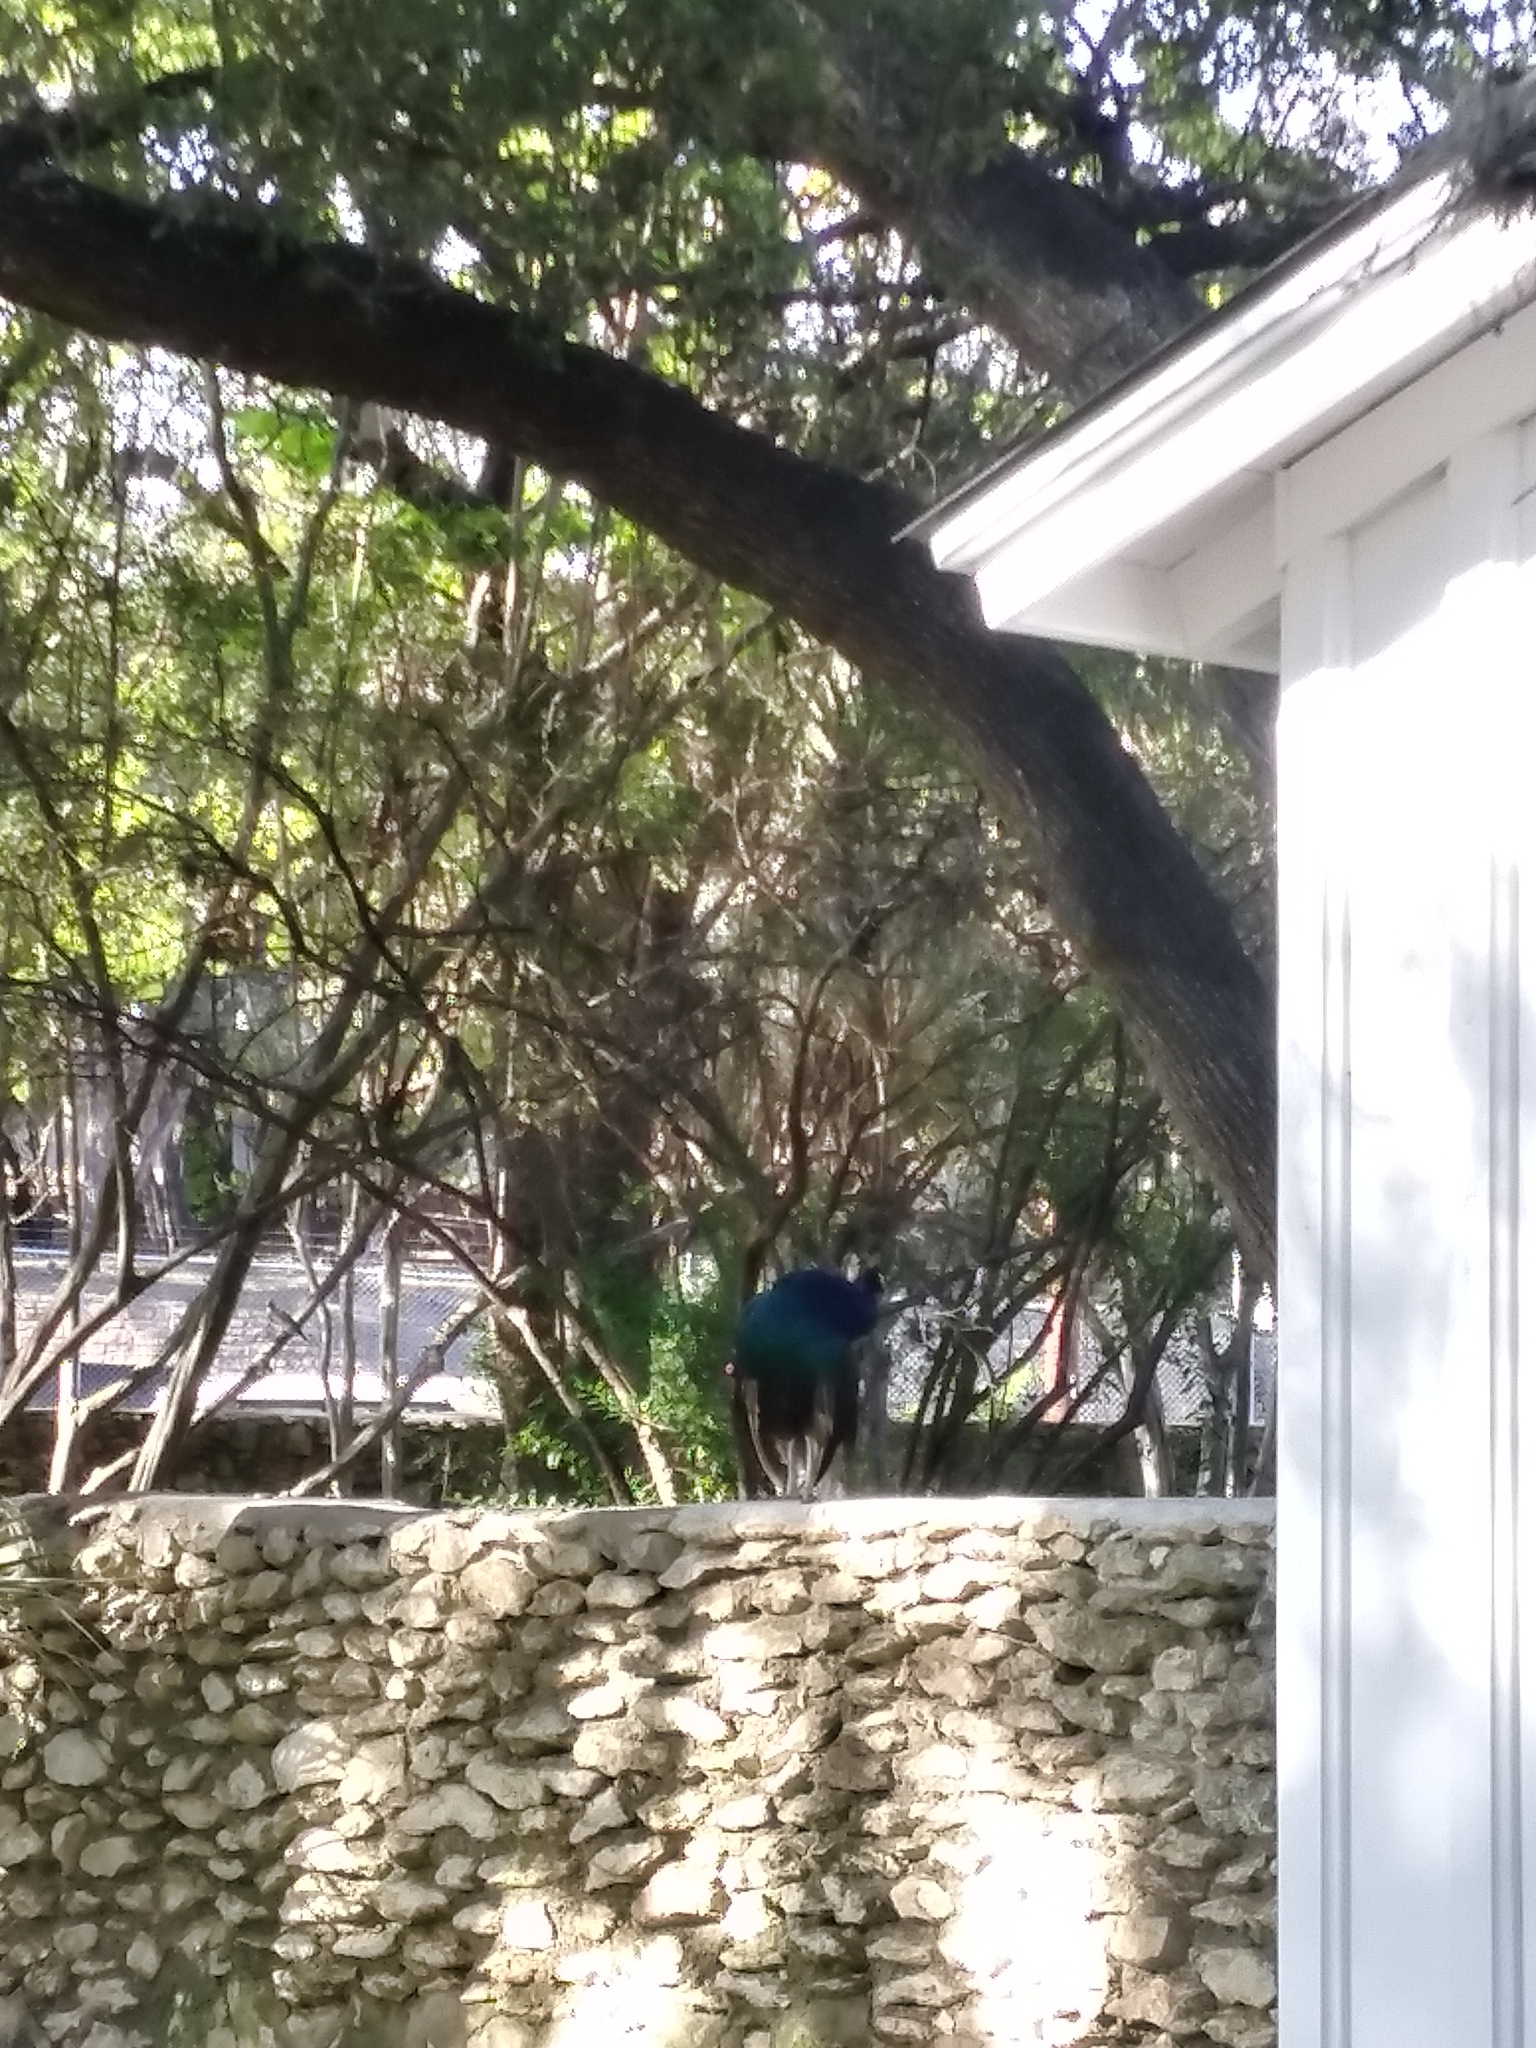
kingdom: Animalia
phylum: Chordata
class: Aves
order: Galliformes
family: Phasianidae
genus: Pavo
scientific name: Pavo cristatus
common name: Indian peafowl
